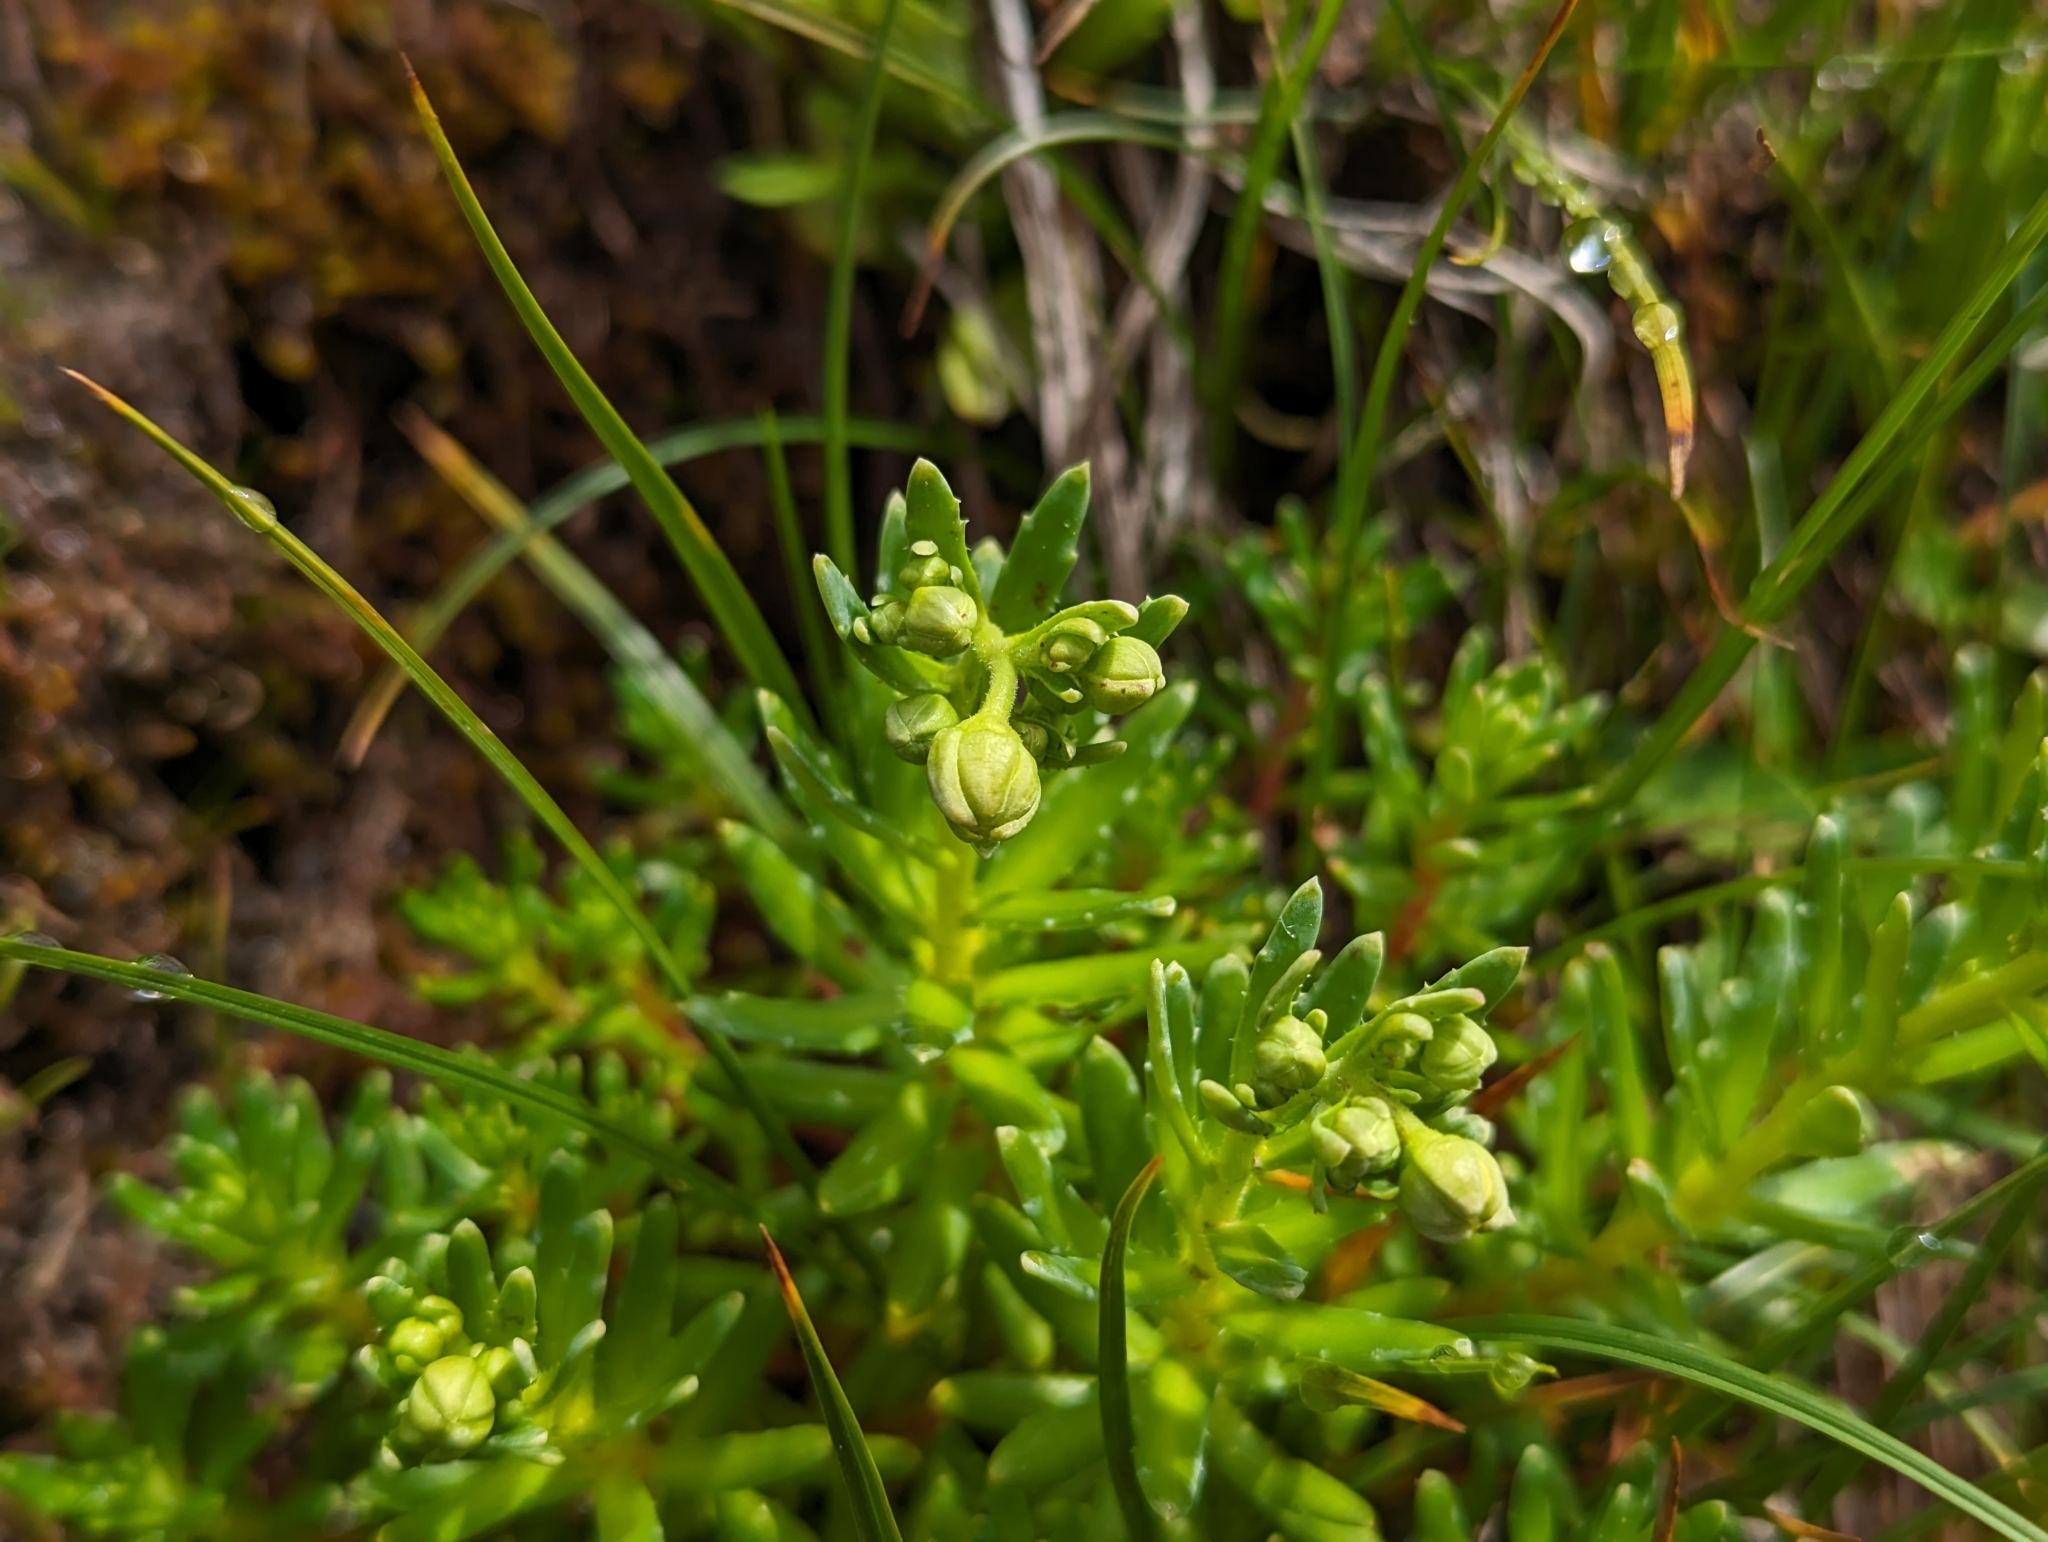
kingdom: Plantae
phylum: Tracheophyta
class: Magnoliopsida
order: Saxifragales
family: Saxifragaceae
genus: Saxifraga
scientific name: Saxifraga aizoides
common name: Yellow mountain saxifrage
